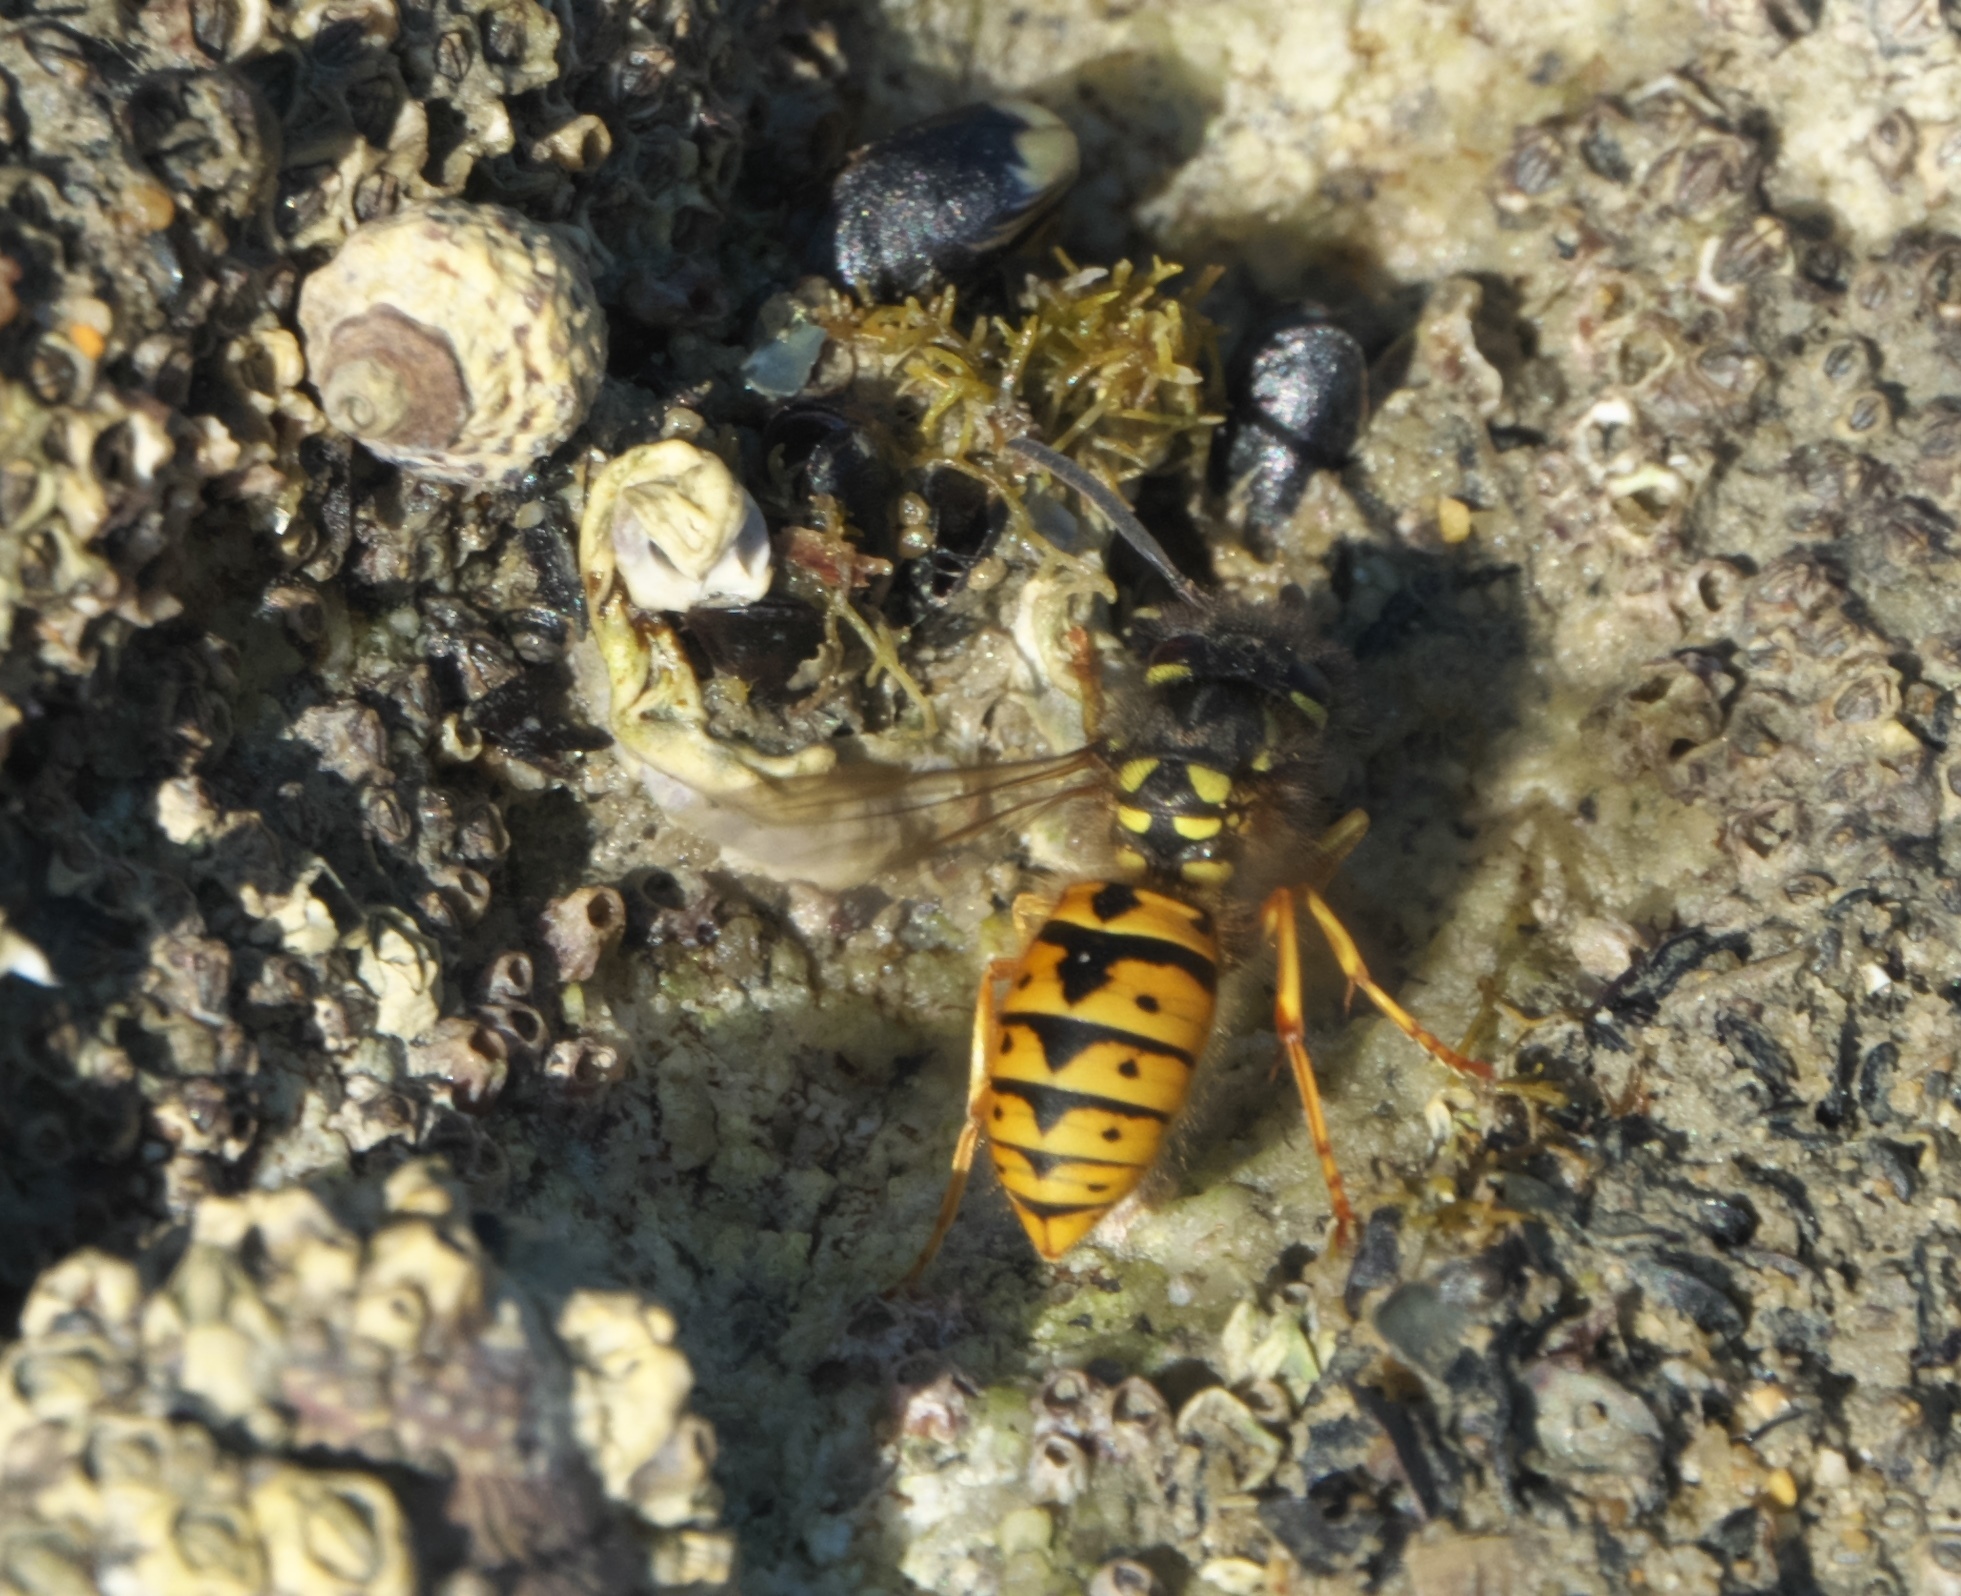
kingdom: Animalia
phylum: Arthropoda
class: Insecta
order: Hymenoptera
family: Vespidae
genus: Vespula
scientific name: Vespula germanica
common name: German wasp
